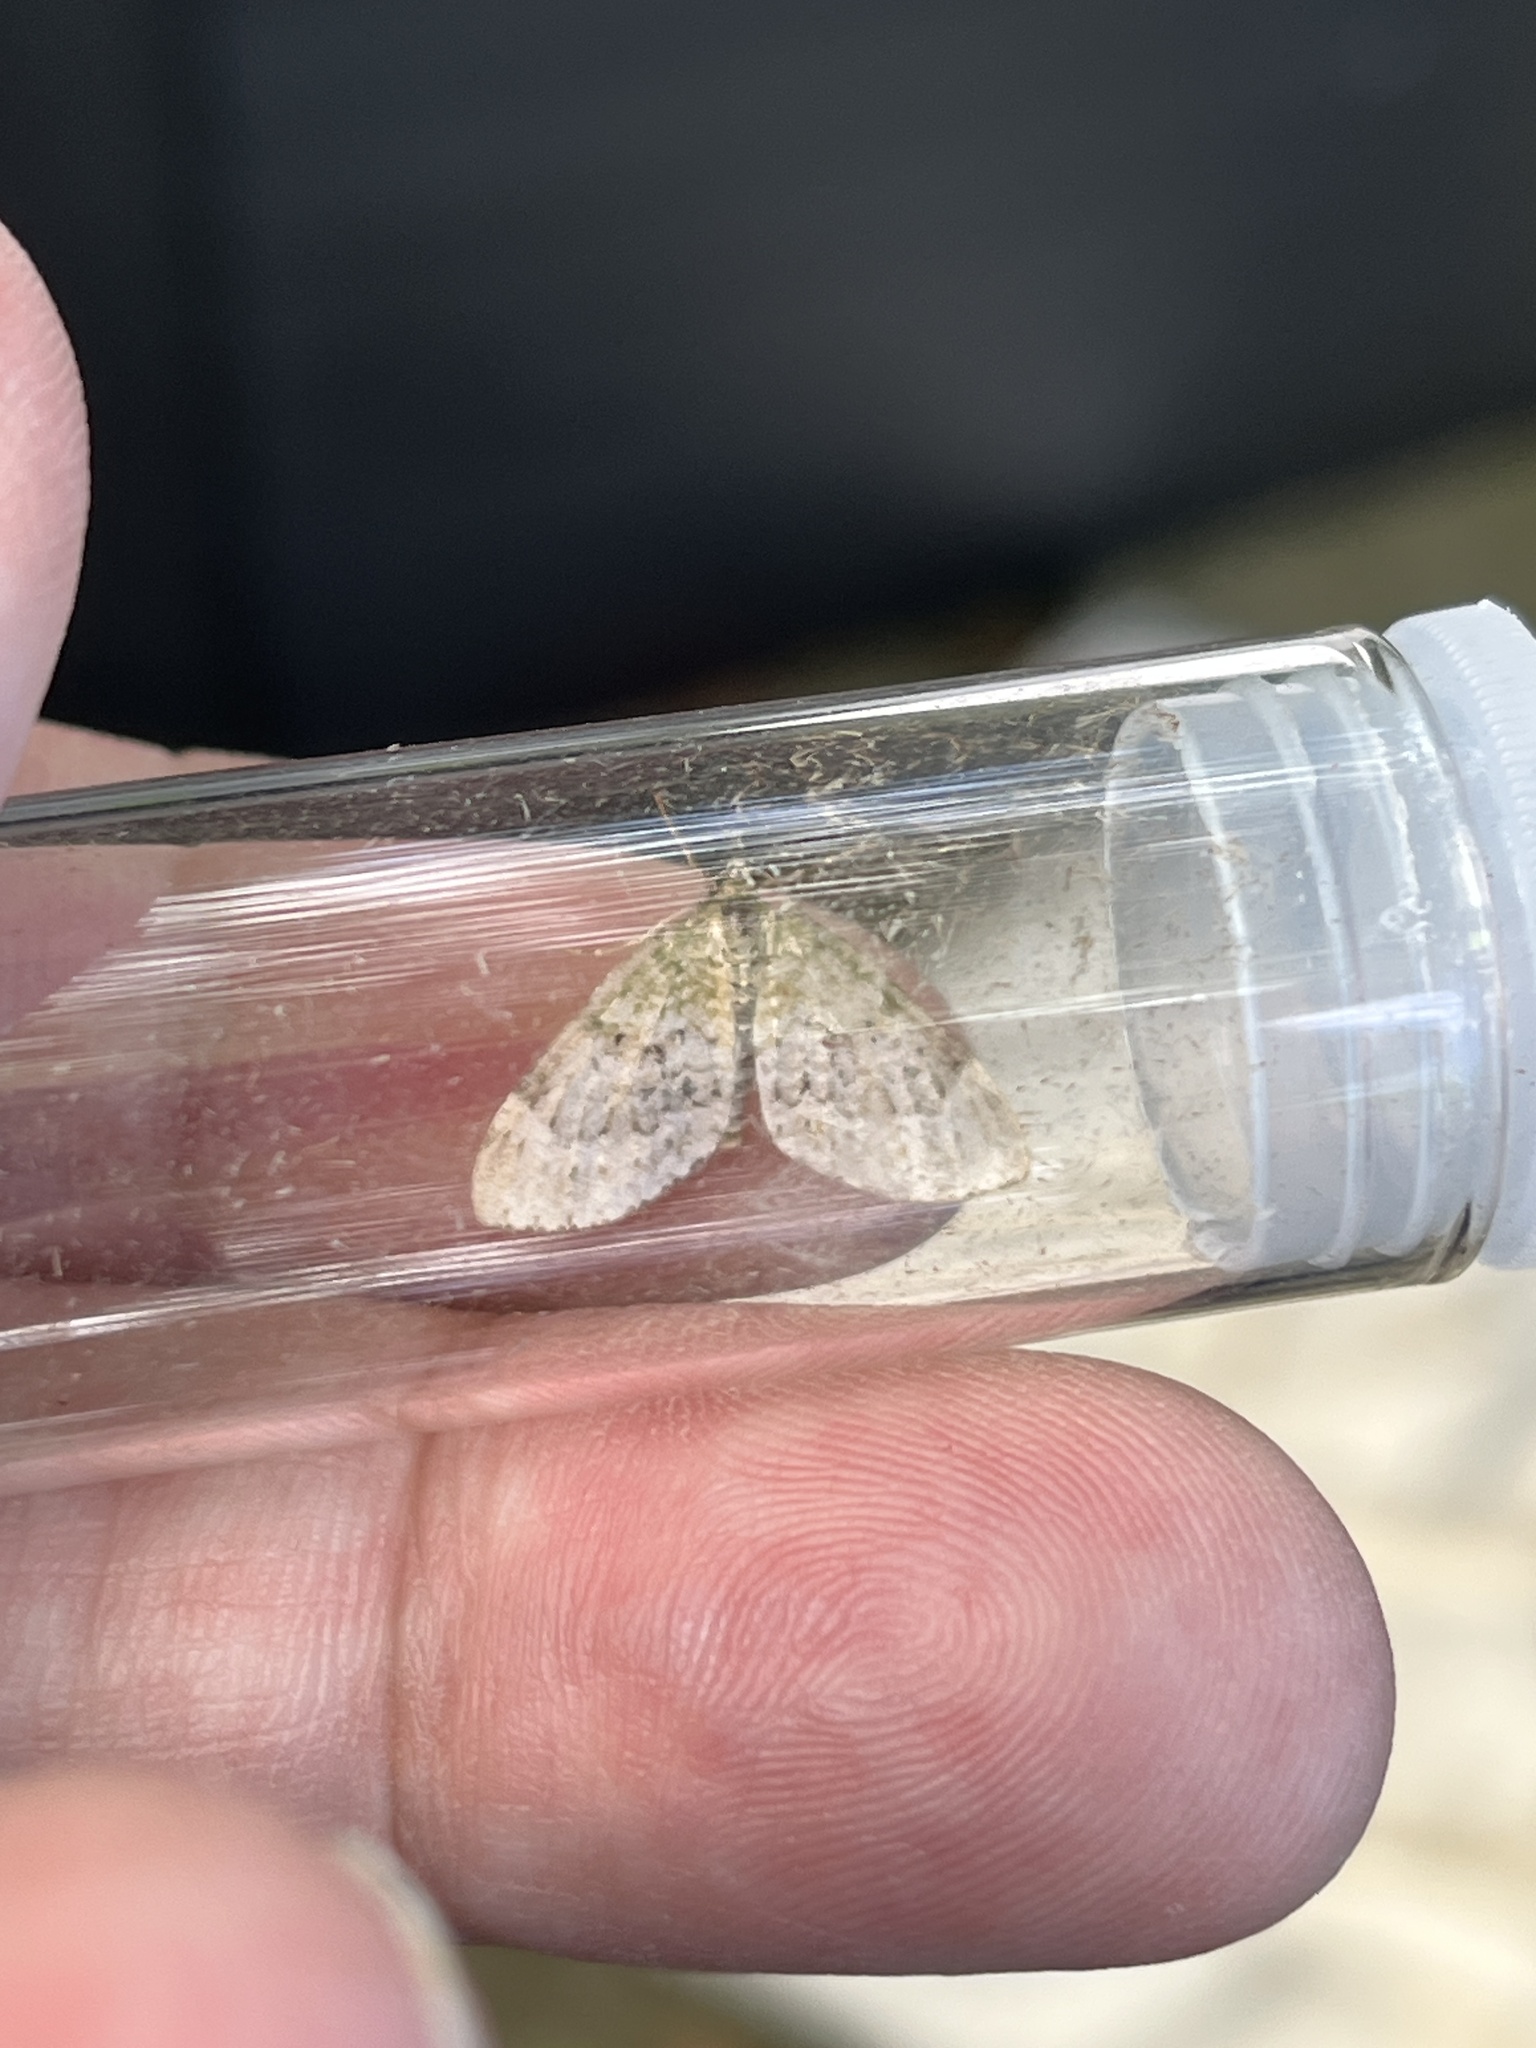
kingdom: Animalia
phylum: Arthropoda
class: Insecta
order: Lepidoptera
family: Geometridae
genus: Acasis
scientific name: Acasis viretata
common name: Yellow-barred brindle
